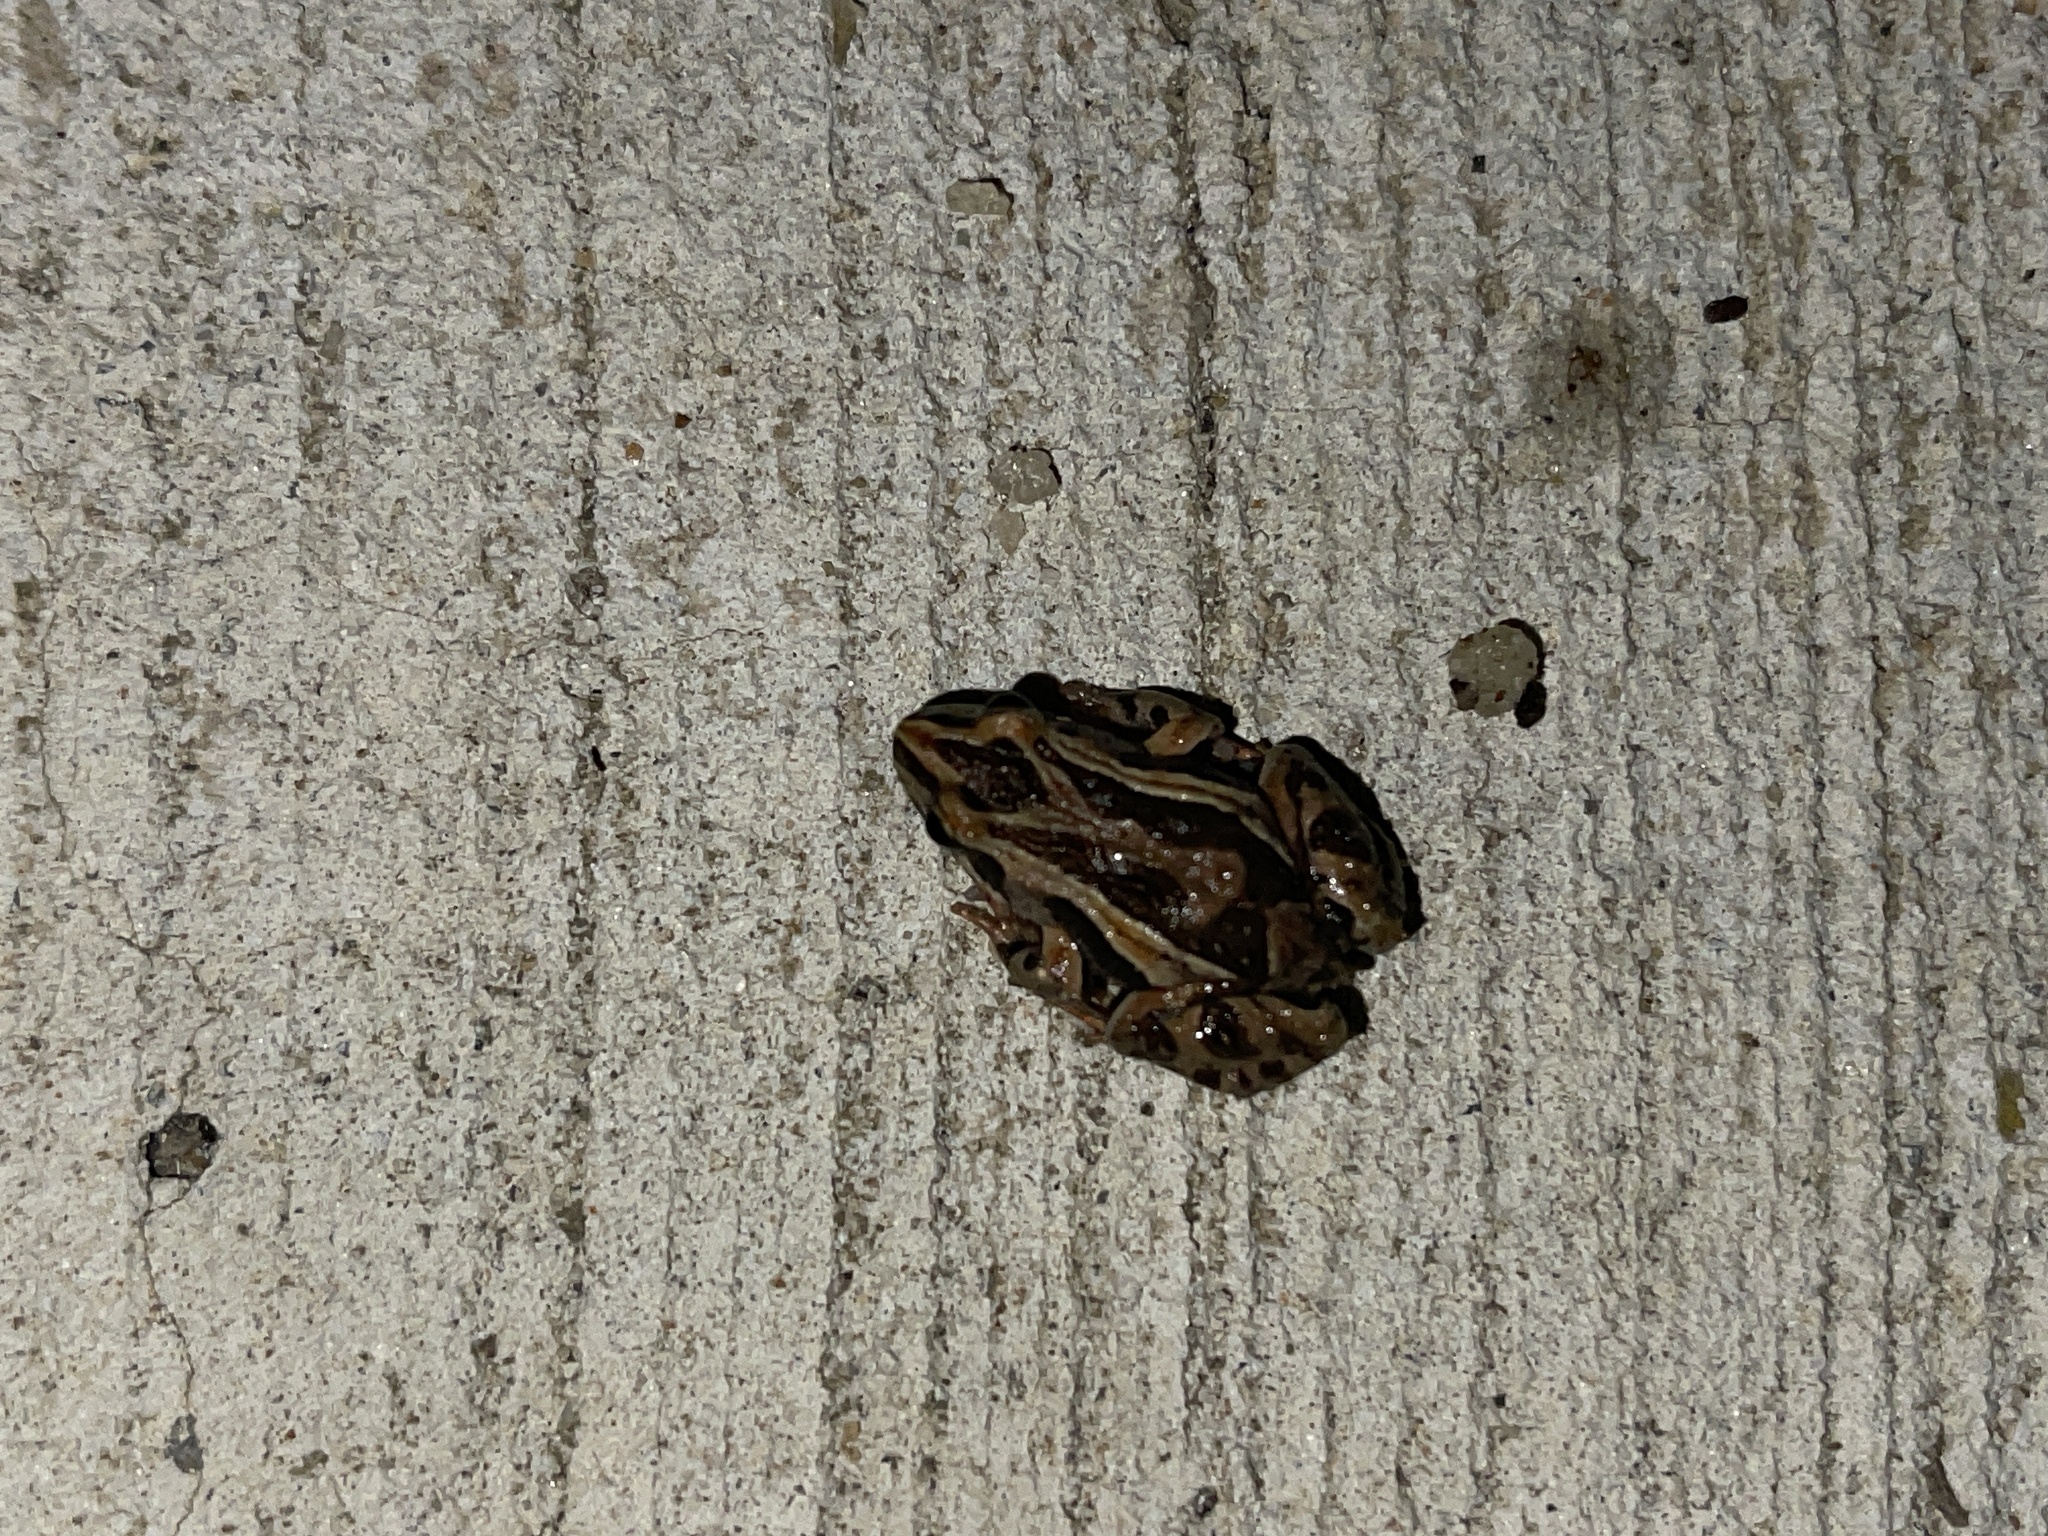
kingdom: Animalia
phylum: Chordata
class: Amphibia
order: Anura
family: Myobatrachidae
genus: Crinia
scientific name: Crinia signifera
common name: Brown froglet
